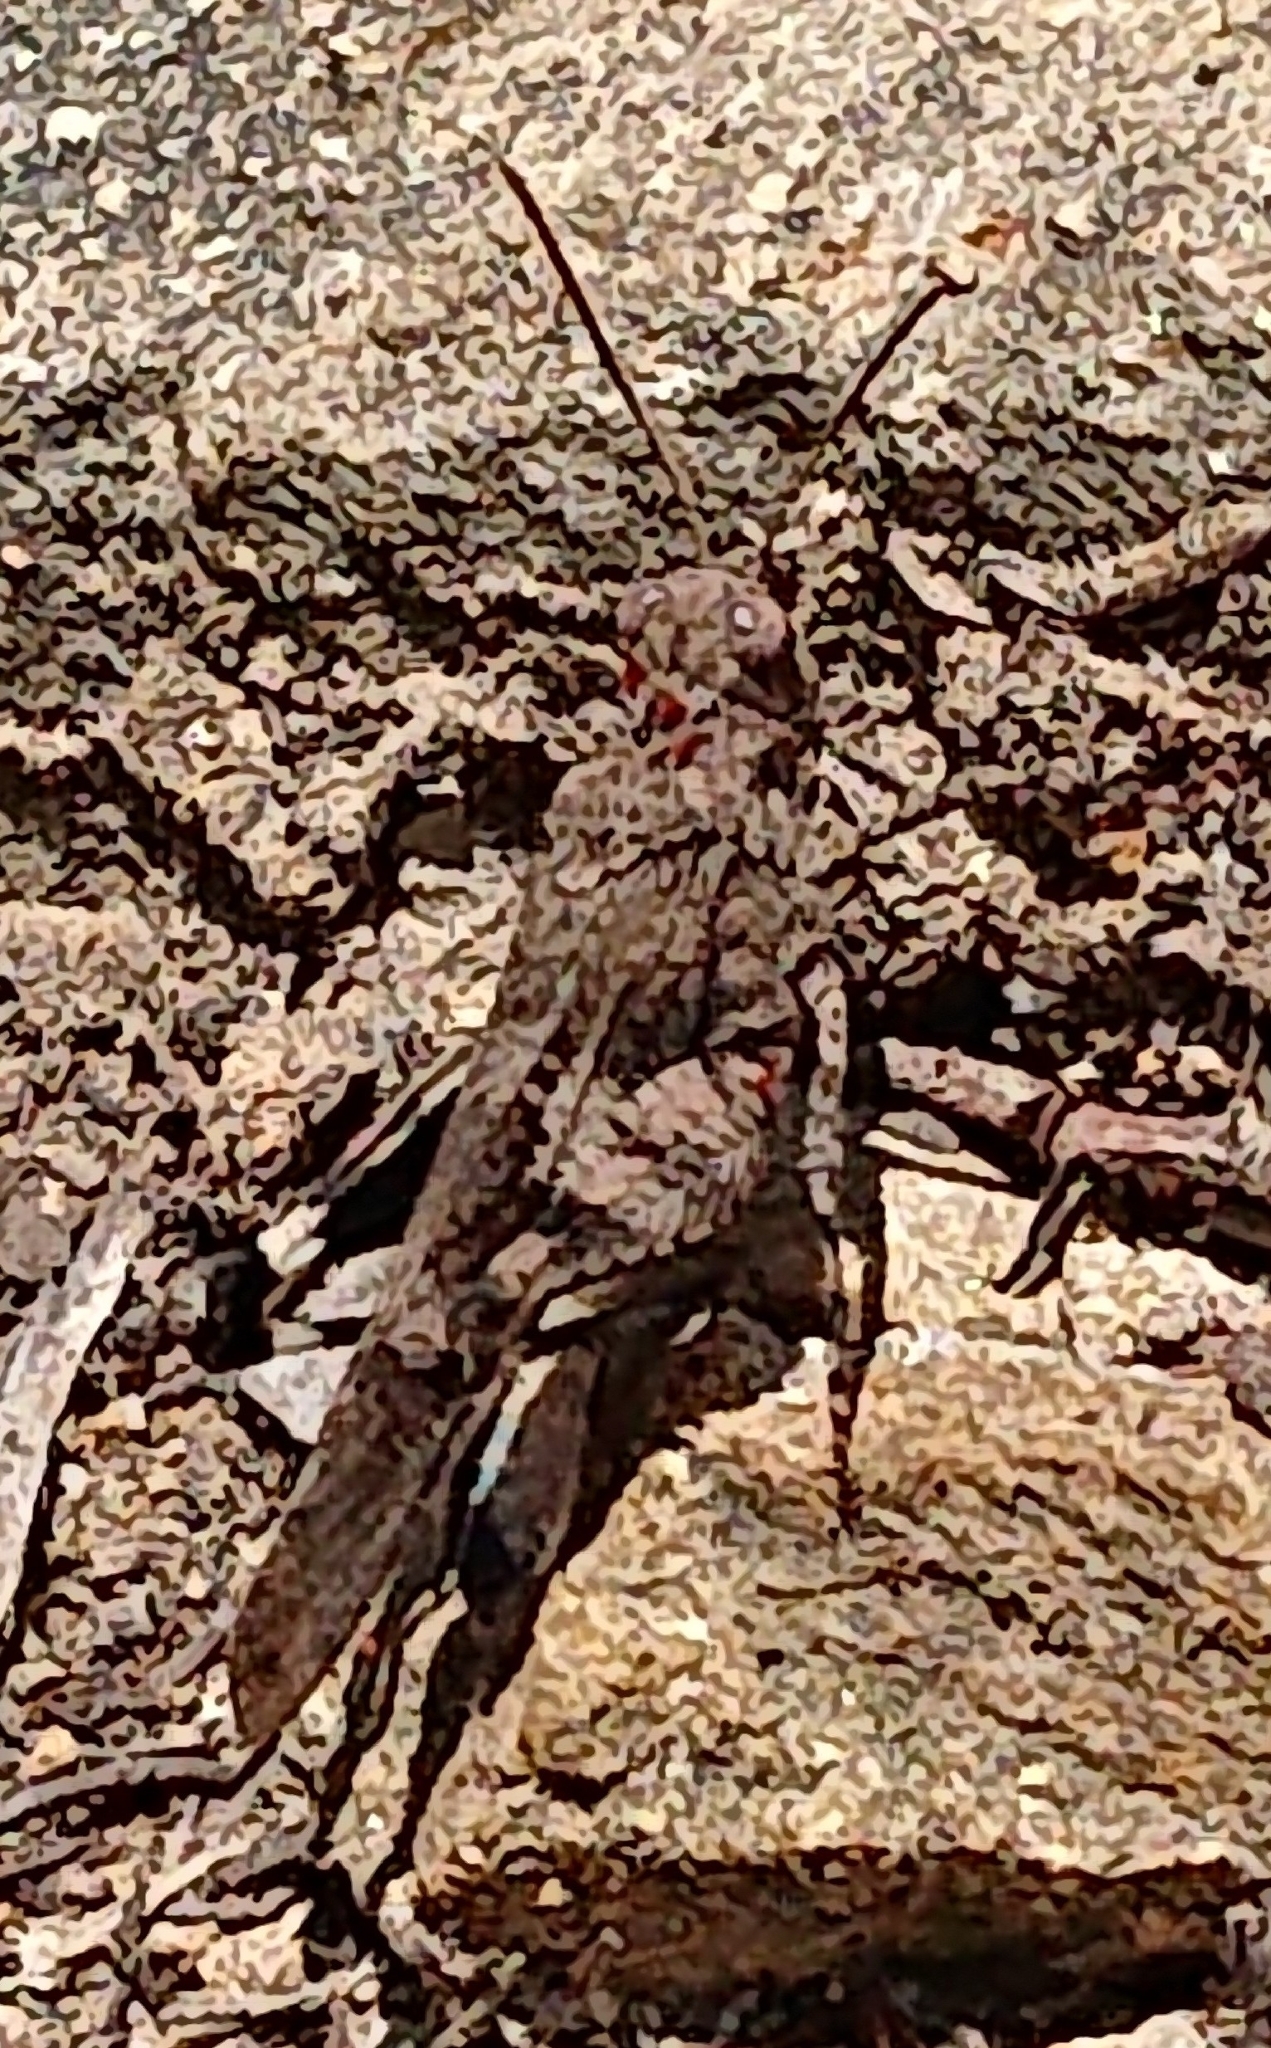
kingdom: Animalia
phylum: Arthropoda
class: Insecta
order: Orthoptera
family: Acrididae
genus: Oedipoda
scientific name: Oedipoda caerulescens
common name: Blue-winged grasshopper
